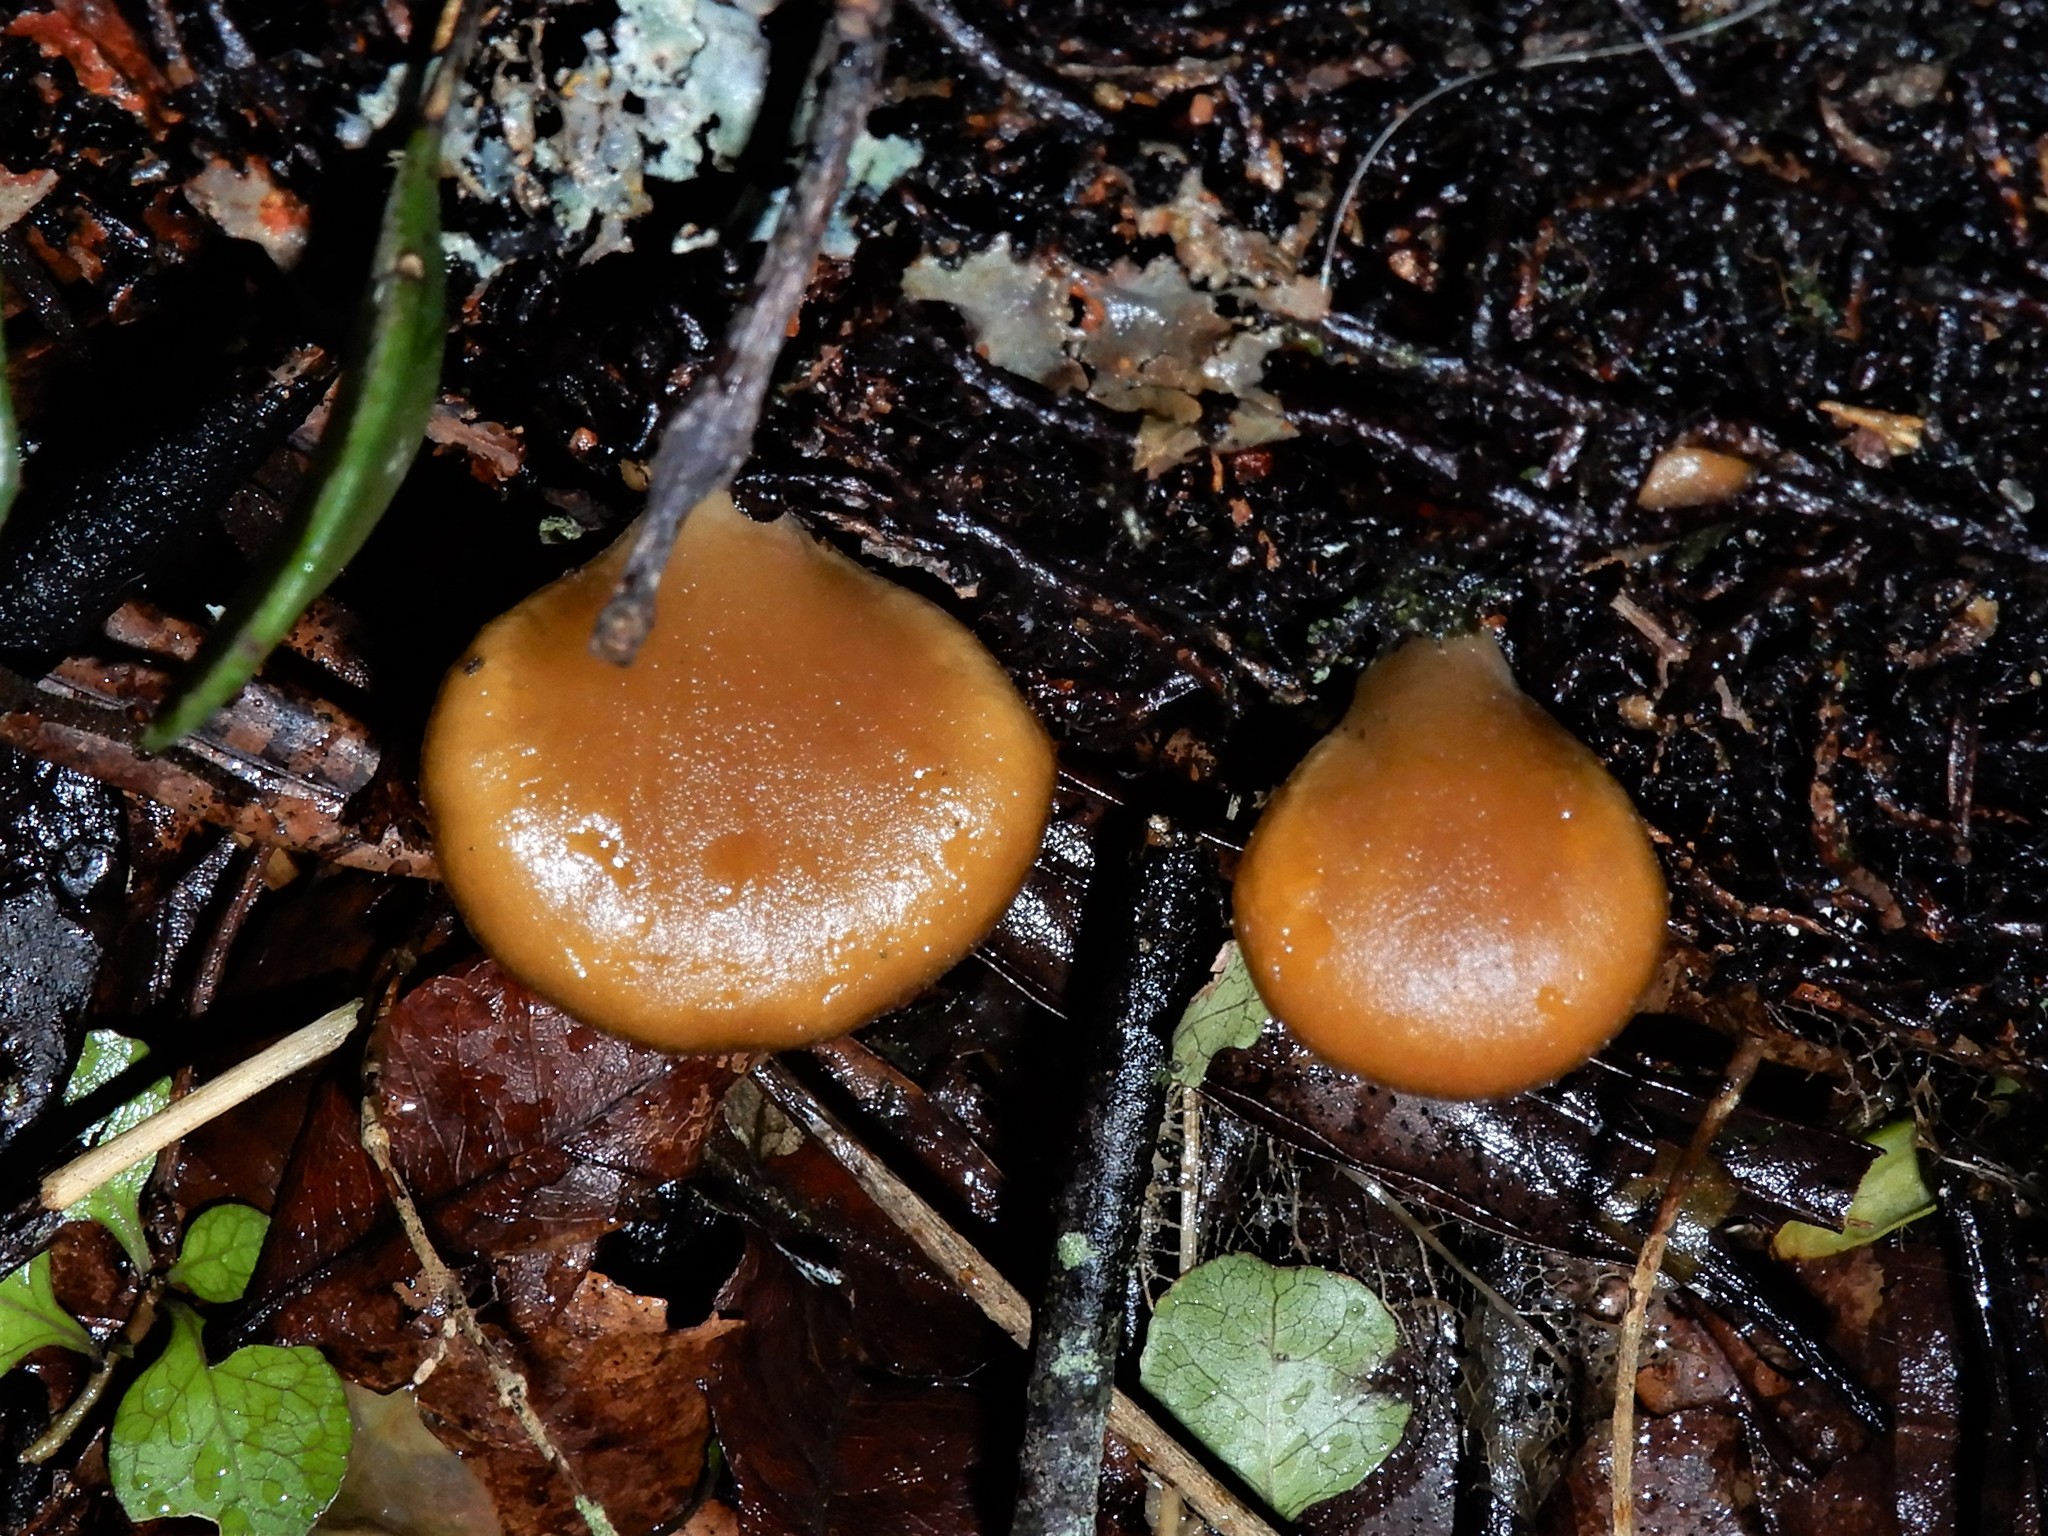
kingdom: Fungi
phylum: Basidiomycota
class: Agaricomycetes
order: Agaricales
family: Pleurotaceae
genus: Hohenbuehelia
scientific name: Hohenbuehelia
